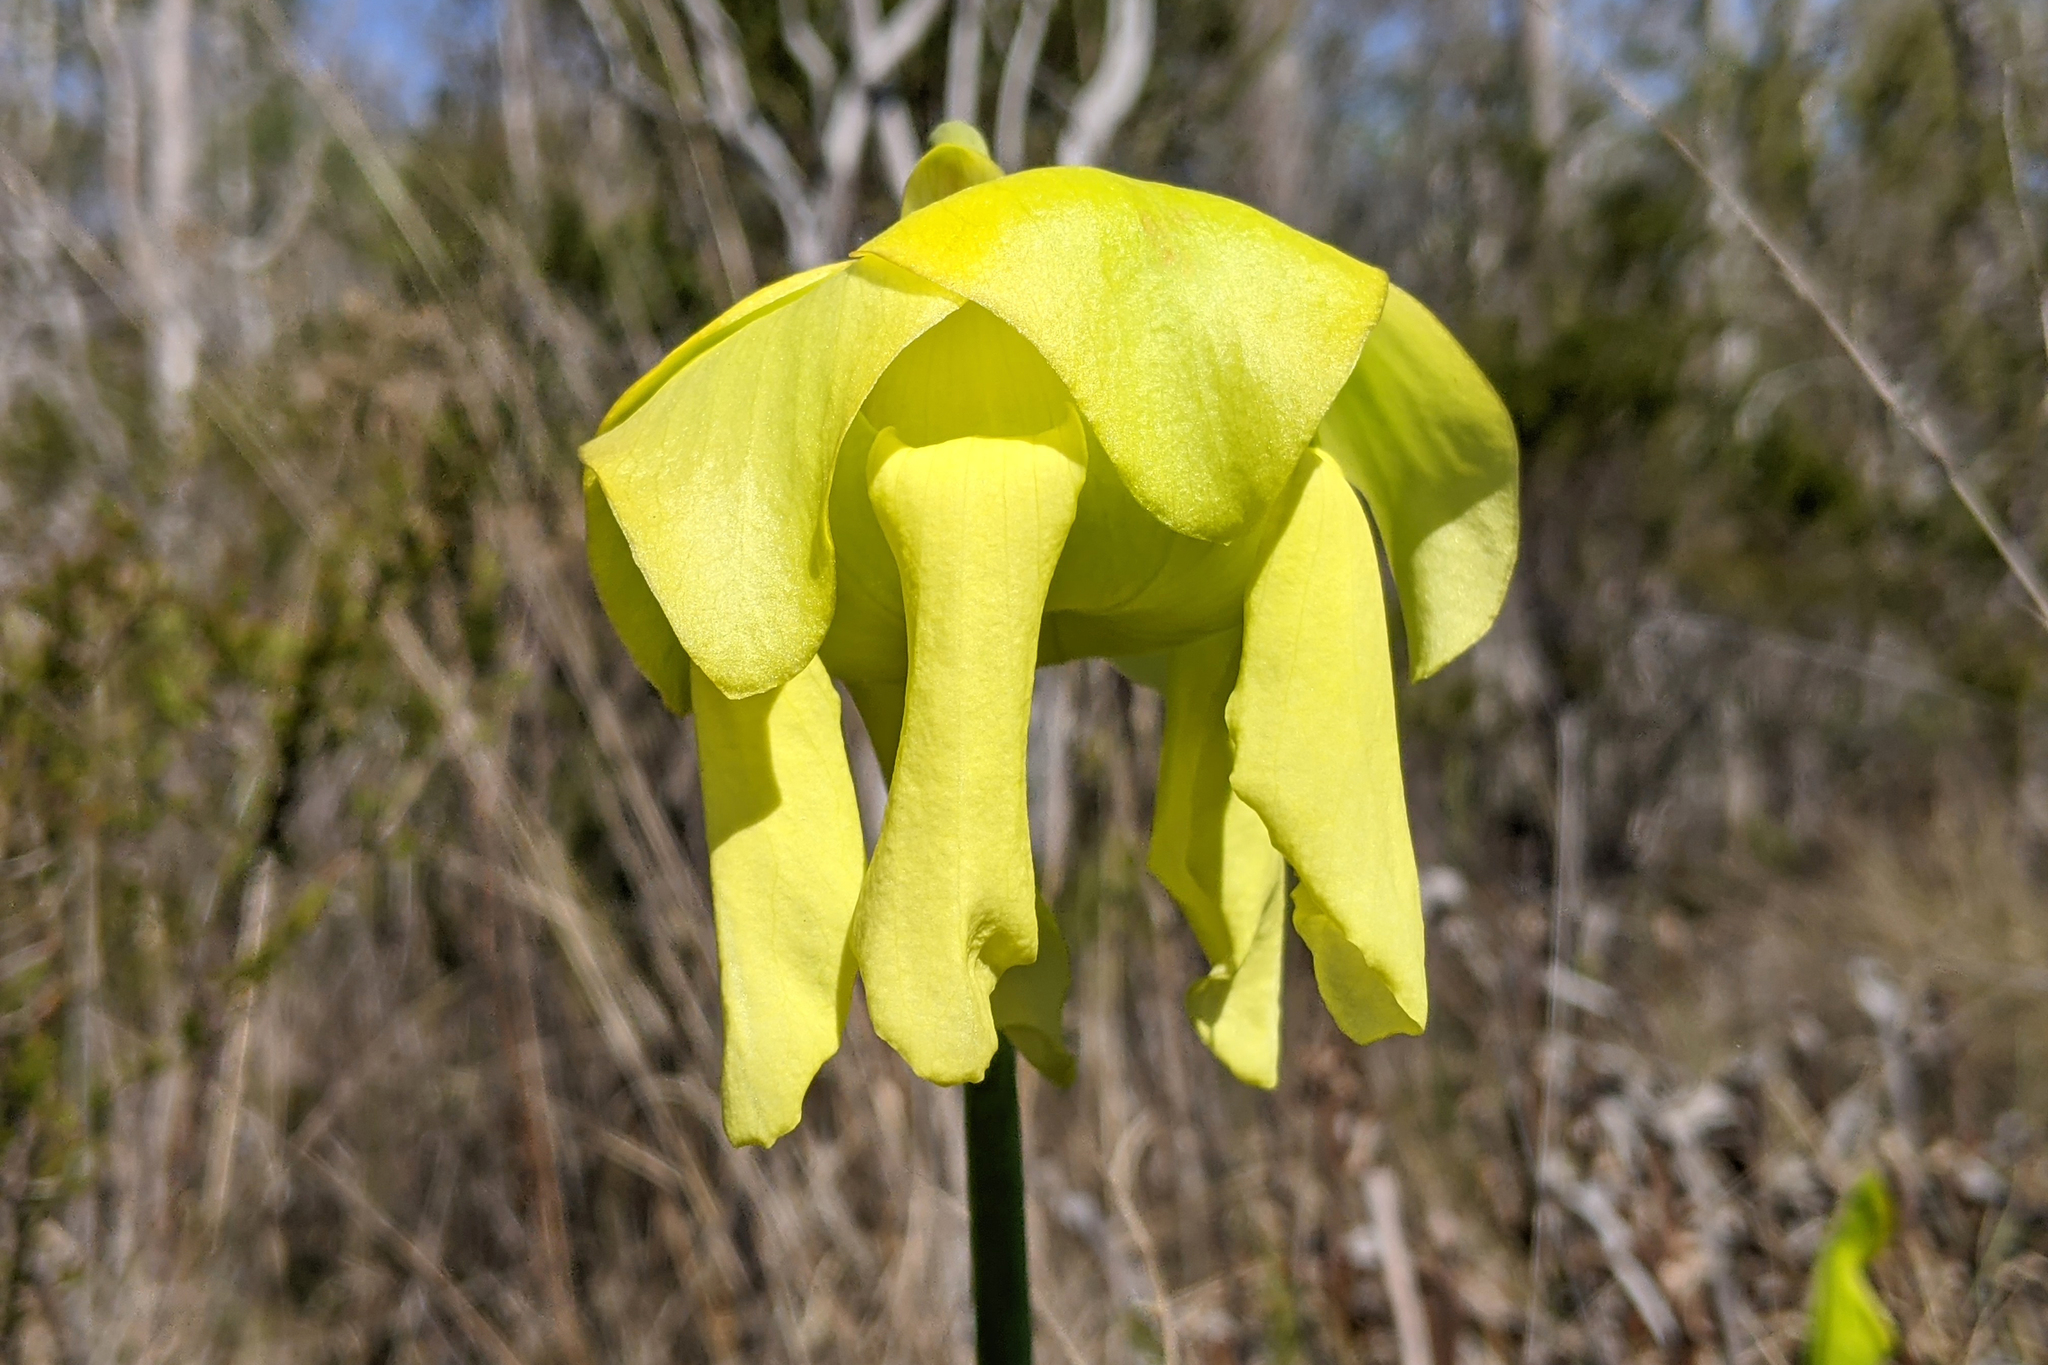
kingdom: Plantae
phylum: Tracheophyta
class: Magnoliopsida
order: Ericales
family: Sarraceniaceae
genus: Sarracenia
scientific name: Sarracenia flava
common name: Trumpets
